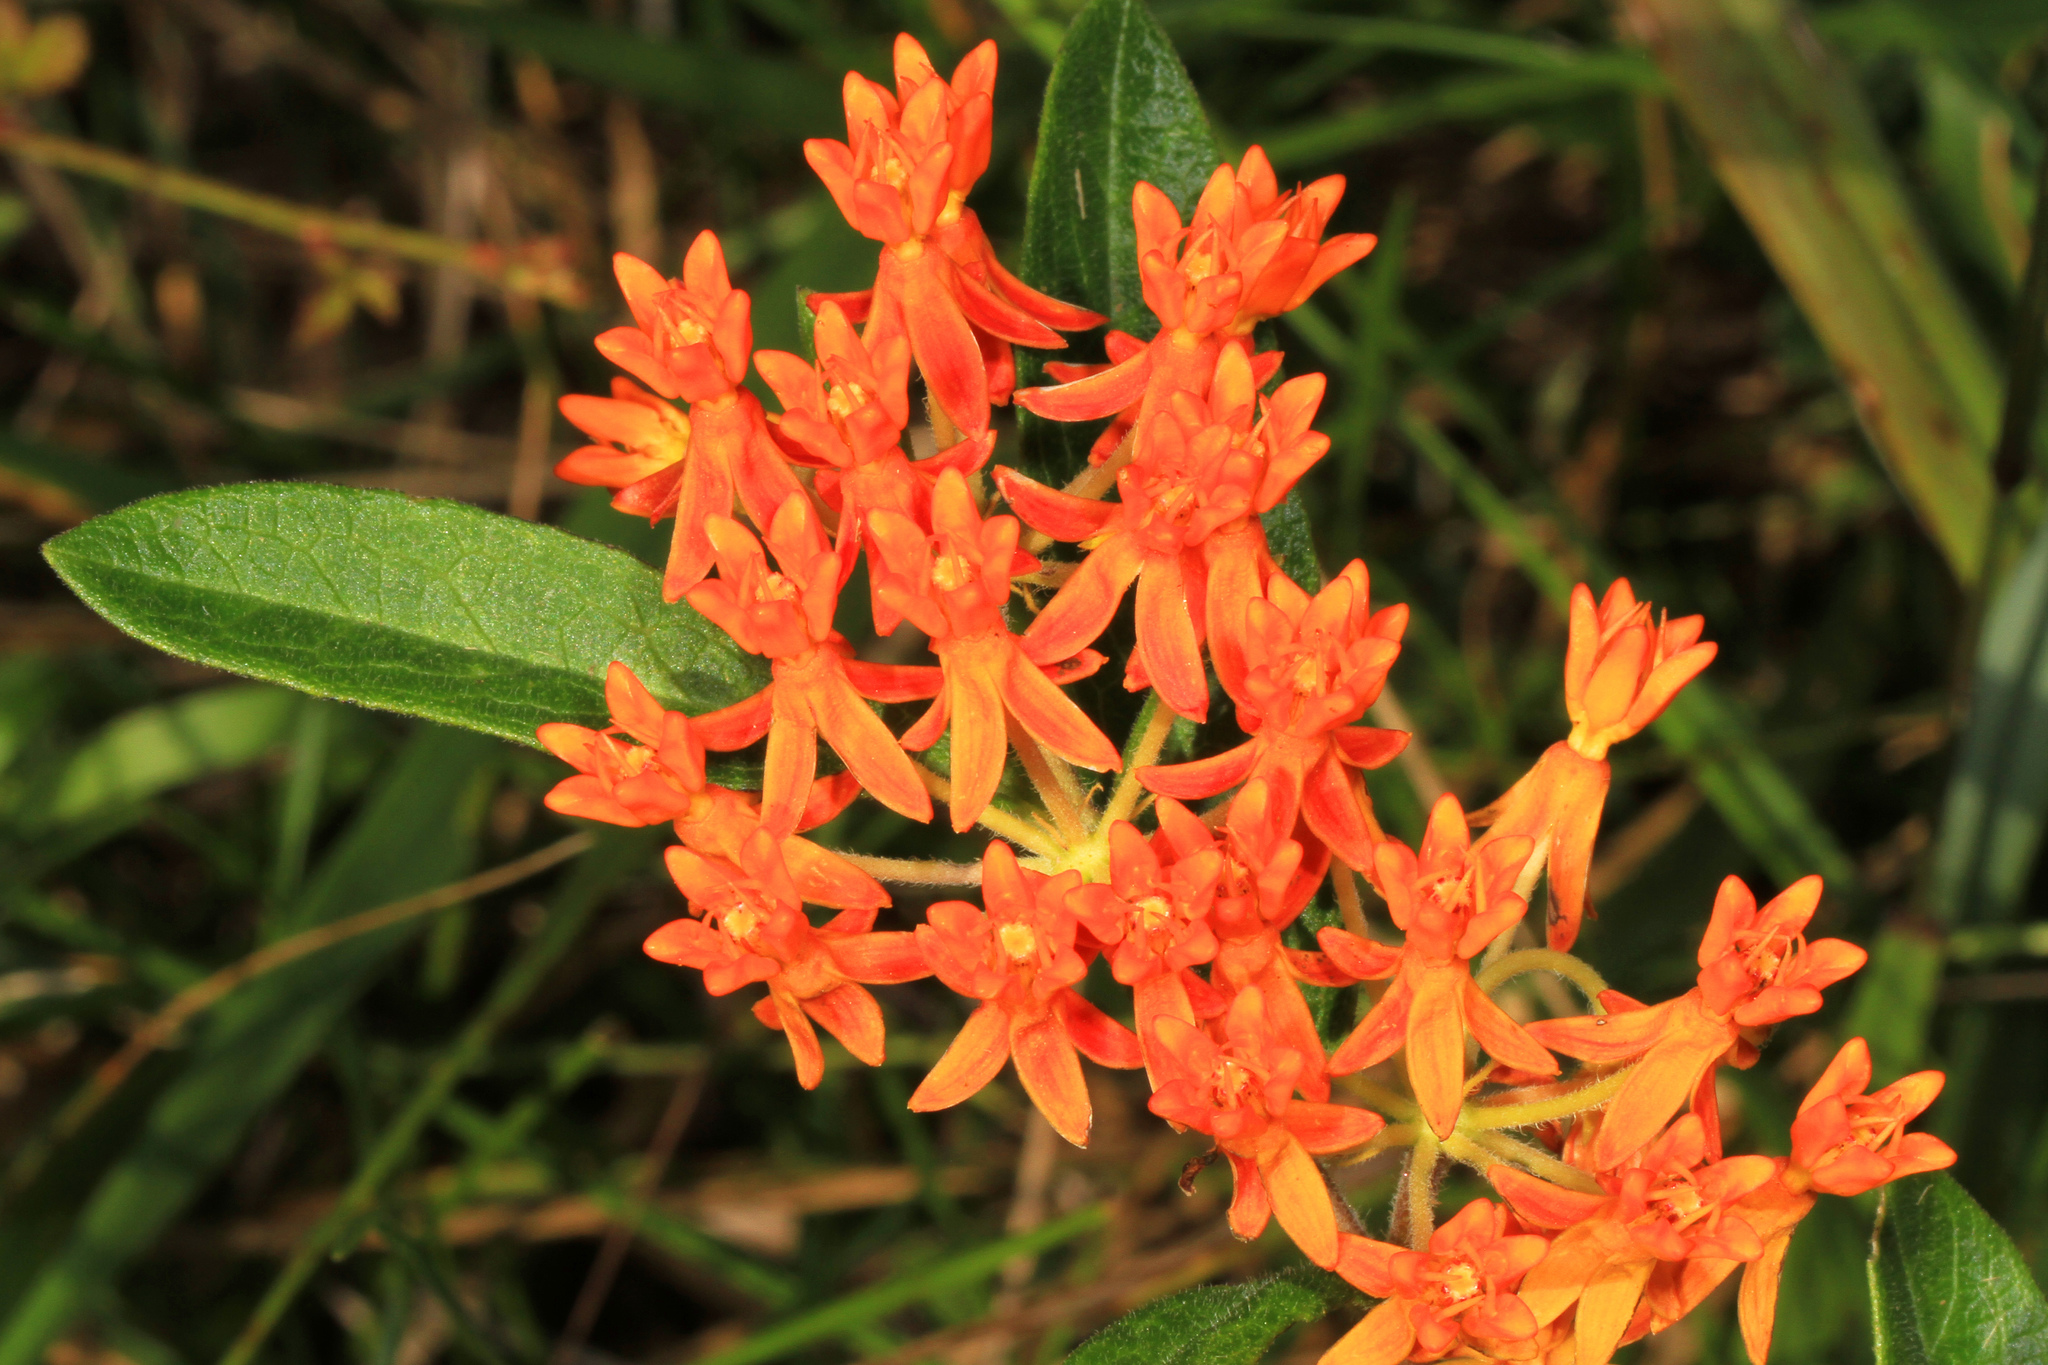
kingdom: Plantae
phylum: Tracheophyta
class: Magnoliopsida
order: Gentianales
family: Apocynaceae
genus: Asclepias
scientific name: Asclepias tuberosa
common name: Butterfly milkweed
